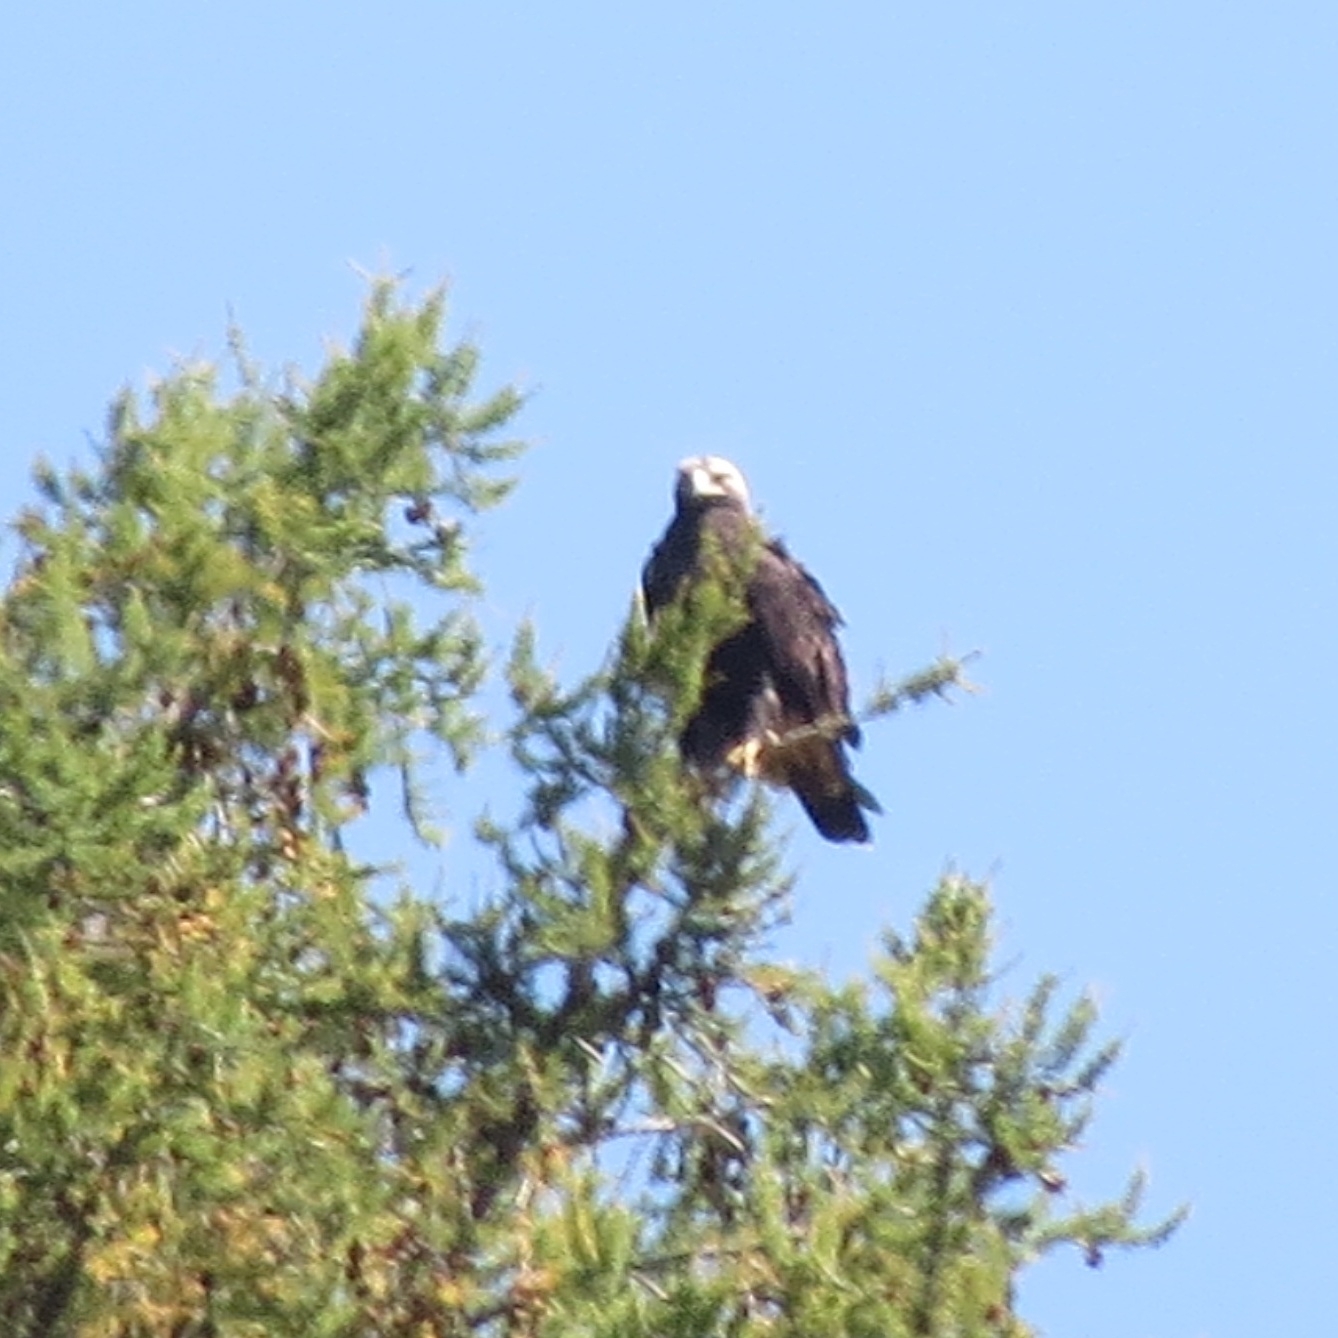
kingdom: Animalia
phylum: Chordata
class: Aves
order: Accipitriformes
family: Accipitridae
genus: Aquila
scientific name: Aquila heliaca
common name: Eastern imperial eagle
